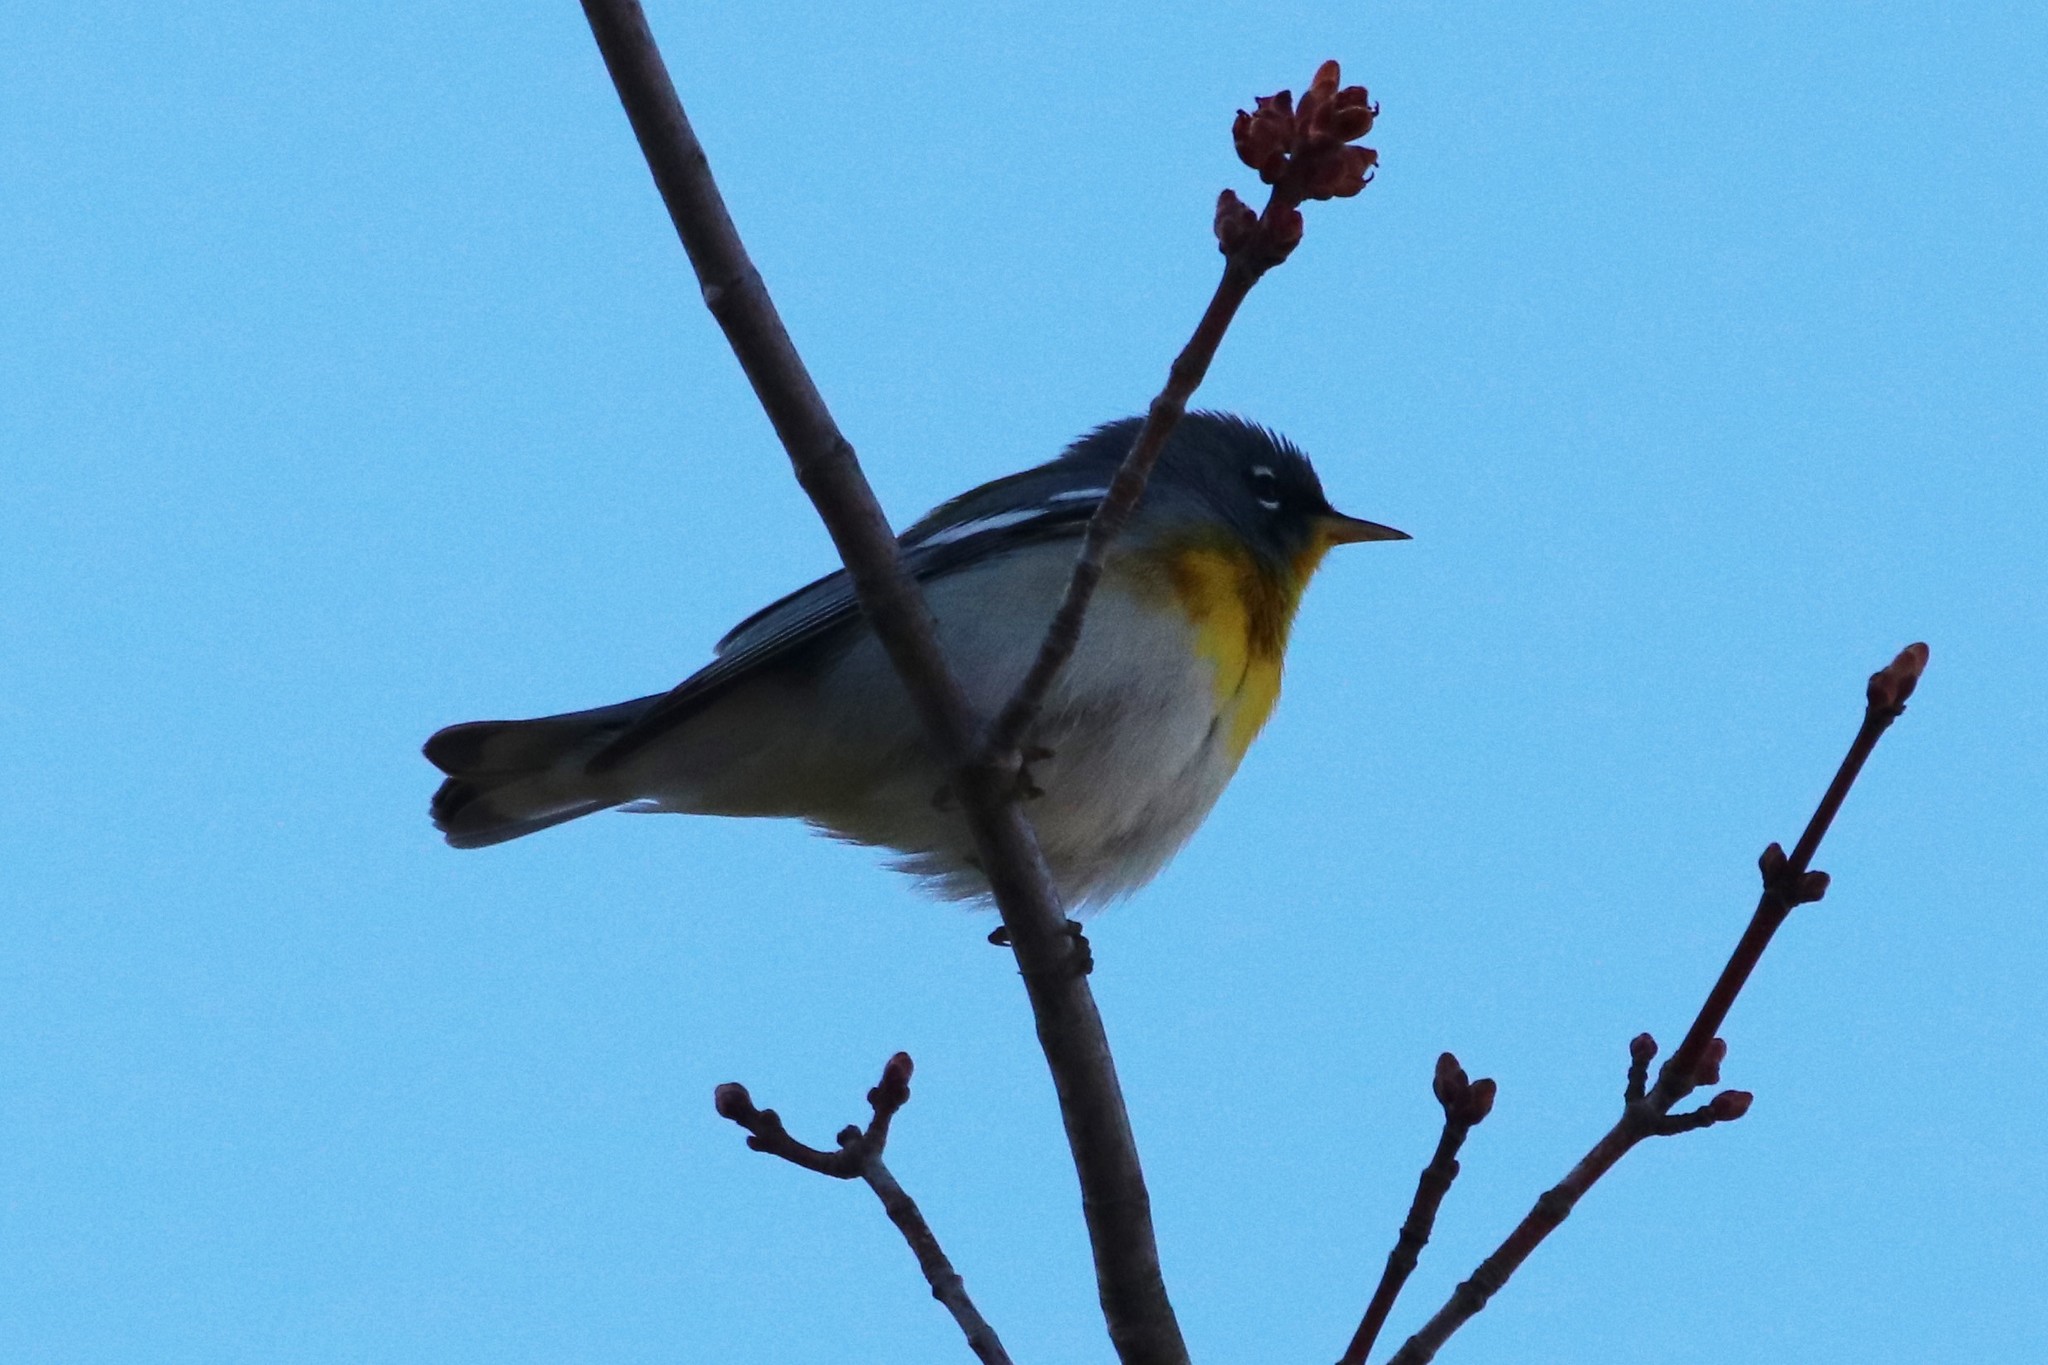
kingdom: Animalia
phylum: Chordata
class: Aves
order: Passeriformes
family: Parulidae
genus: Setophaga
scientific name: Setophaga americana
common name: Northern parula
